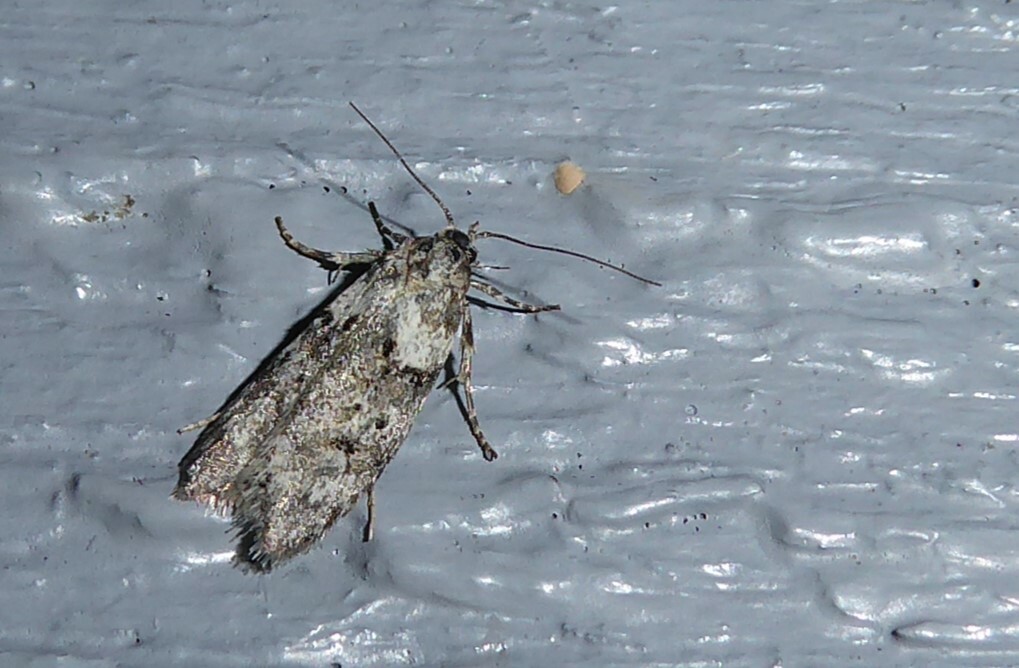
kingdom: Animalia
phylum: Arthropoda
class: Insecta
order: Lepidoptera
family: Oecophoridae
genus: Izatha
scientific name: Izatha convulsella
